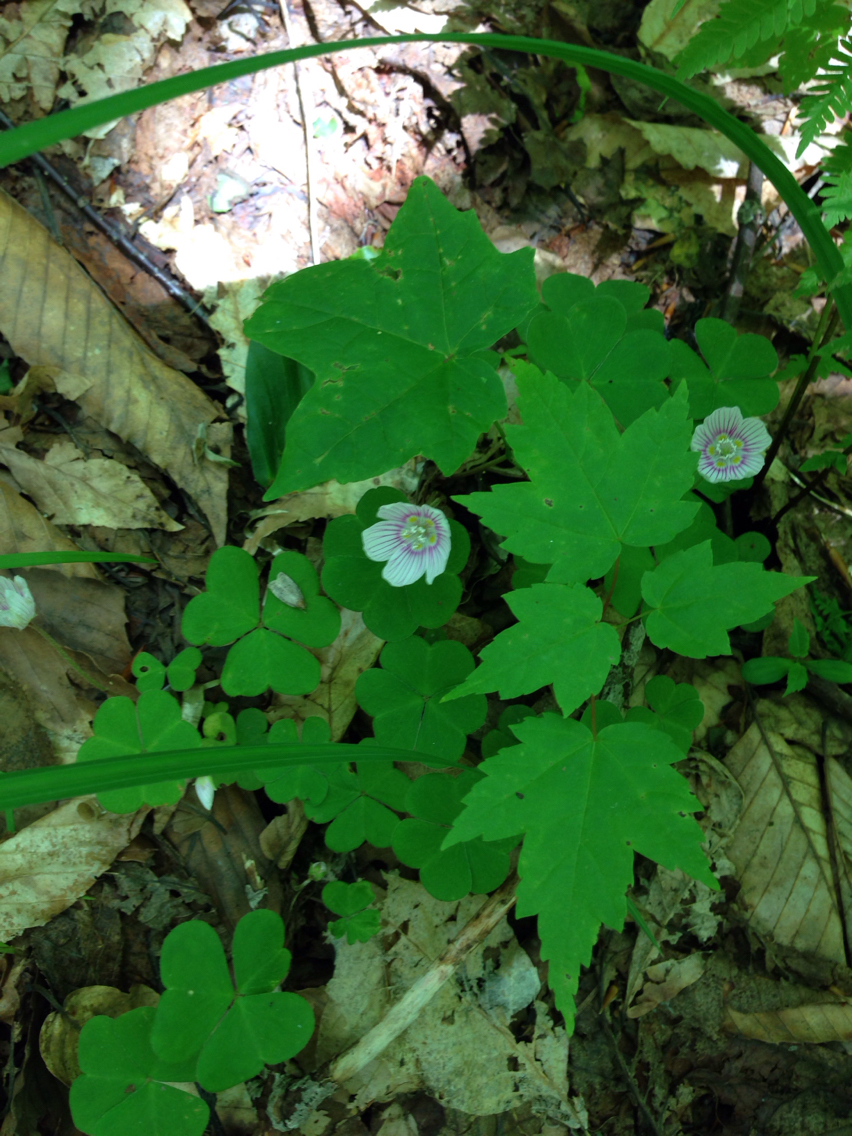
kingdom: Plantae
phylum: Tracheophyta
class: Magnoliopsida
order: Oxalidales
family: Oxalidaceae
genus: Oxalis
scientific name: Oxalis montana
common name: American wood-sorrel
